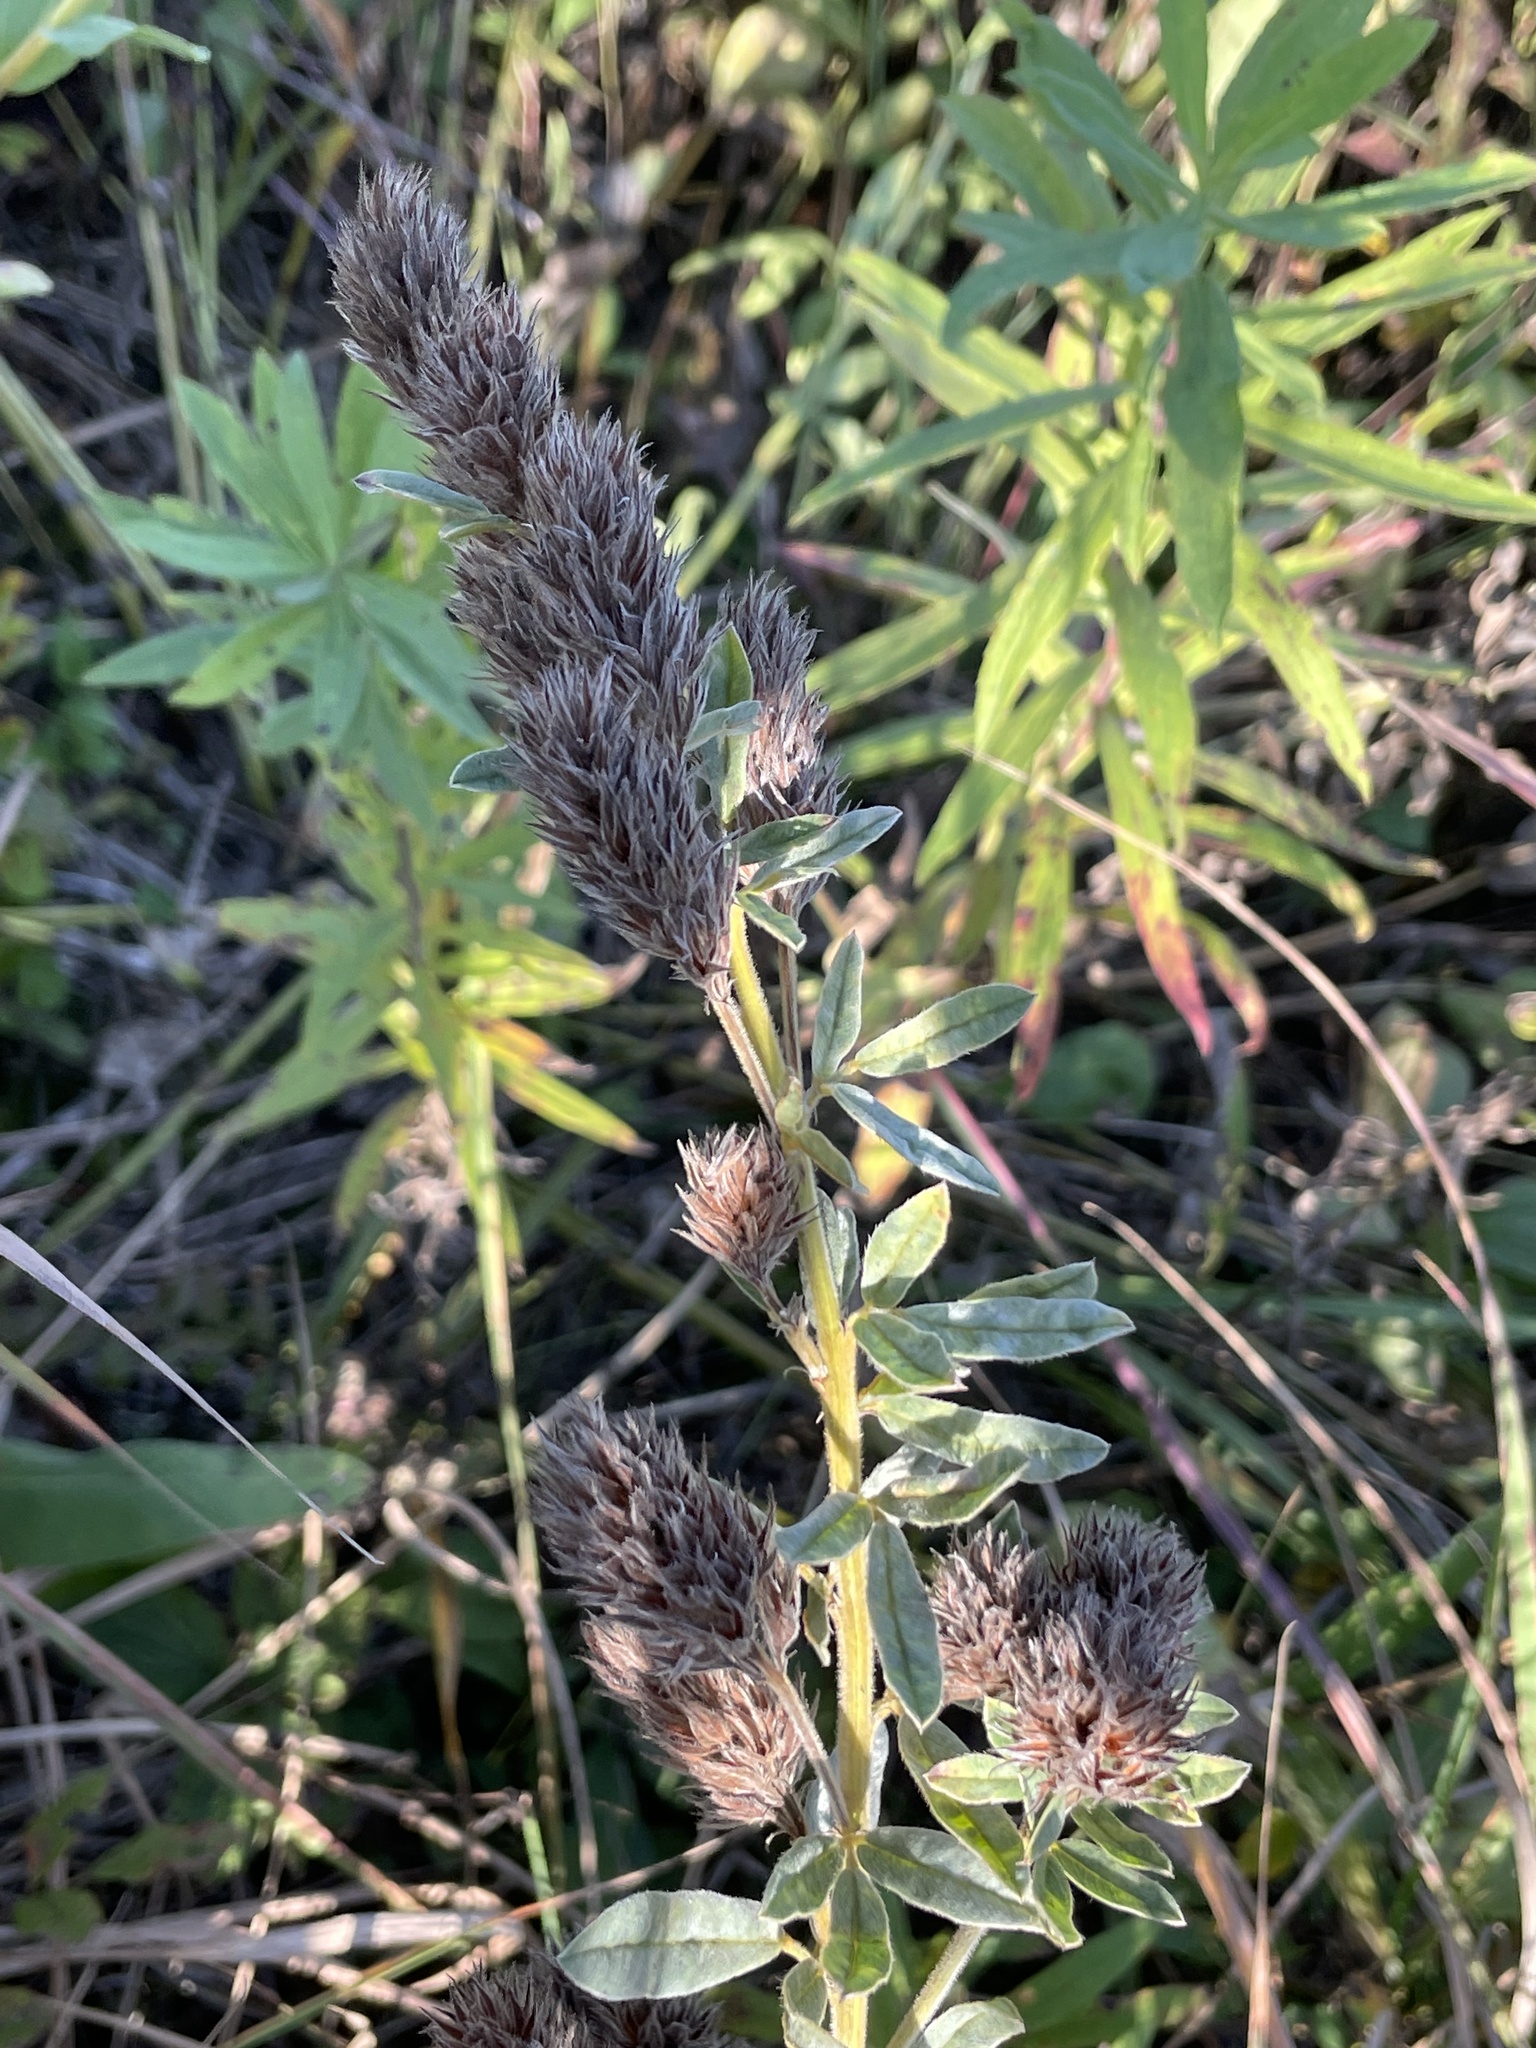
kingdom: Plantae
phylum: Tracheophyta
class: Magnoliopsida
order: Fabales
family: Fabaceae
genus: Lespedeza
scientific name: Lespedeza capitata
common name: Dusty clover
